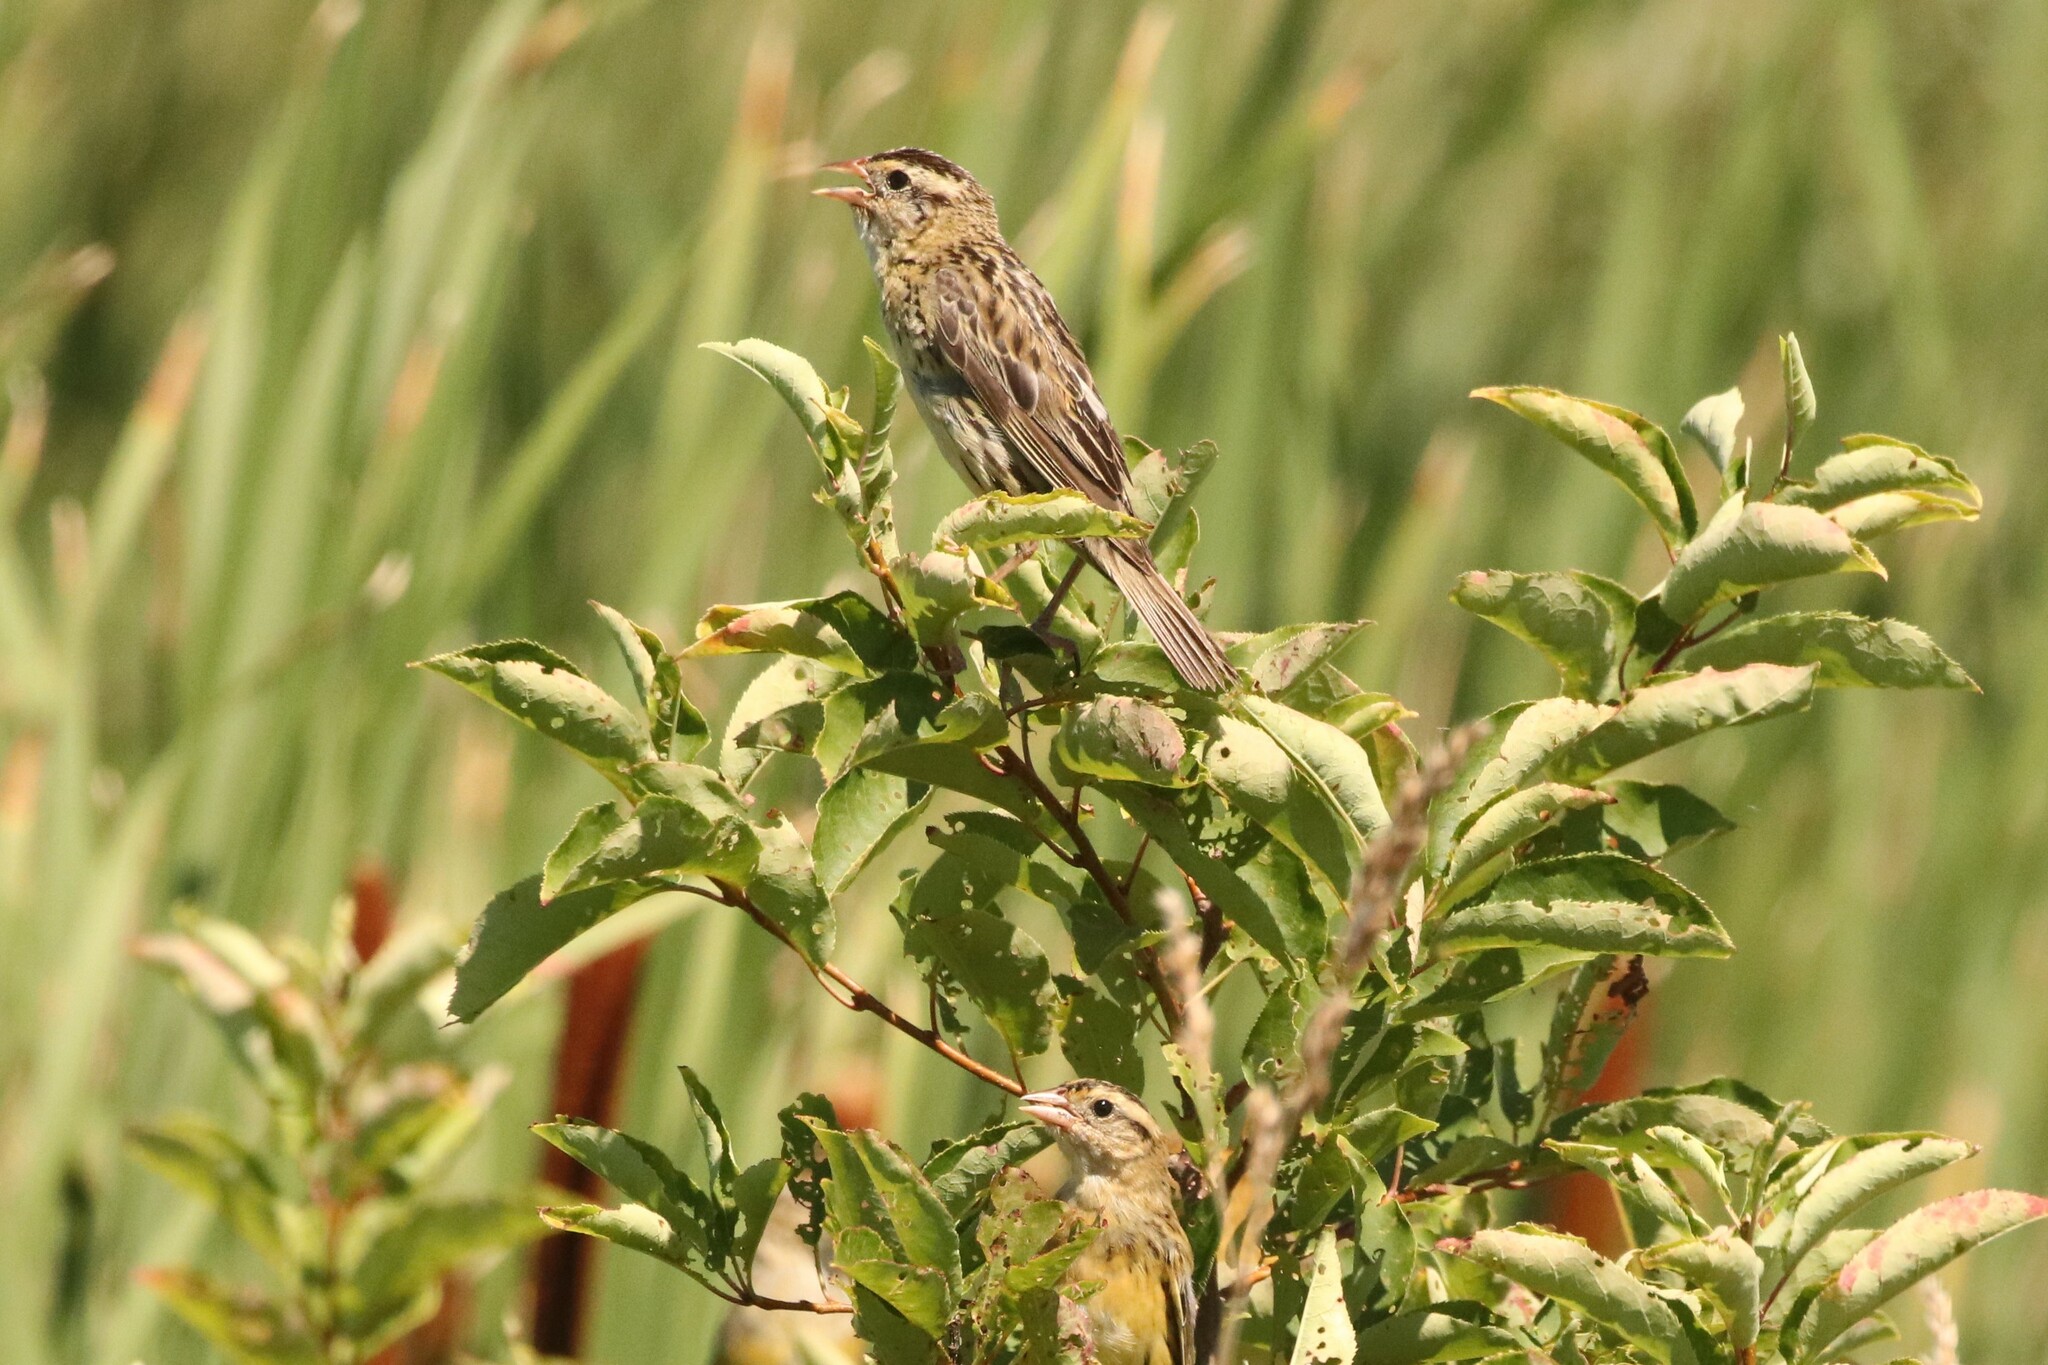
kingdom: Animalia
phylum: Chordata
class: Aves
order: Passeriformes
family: Icteridae
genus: Dolichonyx
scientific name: Dolichonyx oryzivorus
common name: Bobolink
